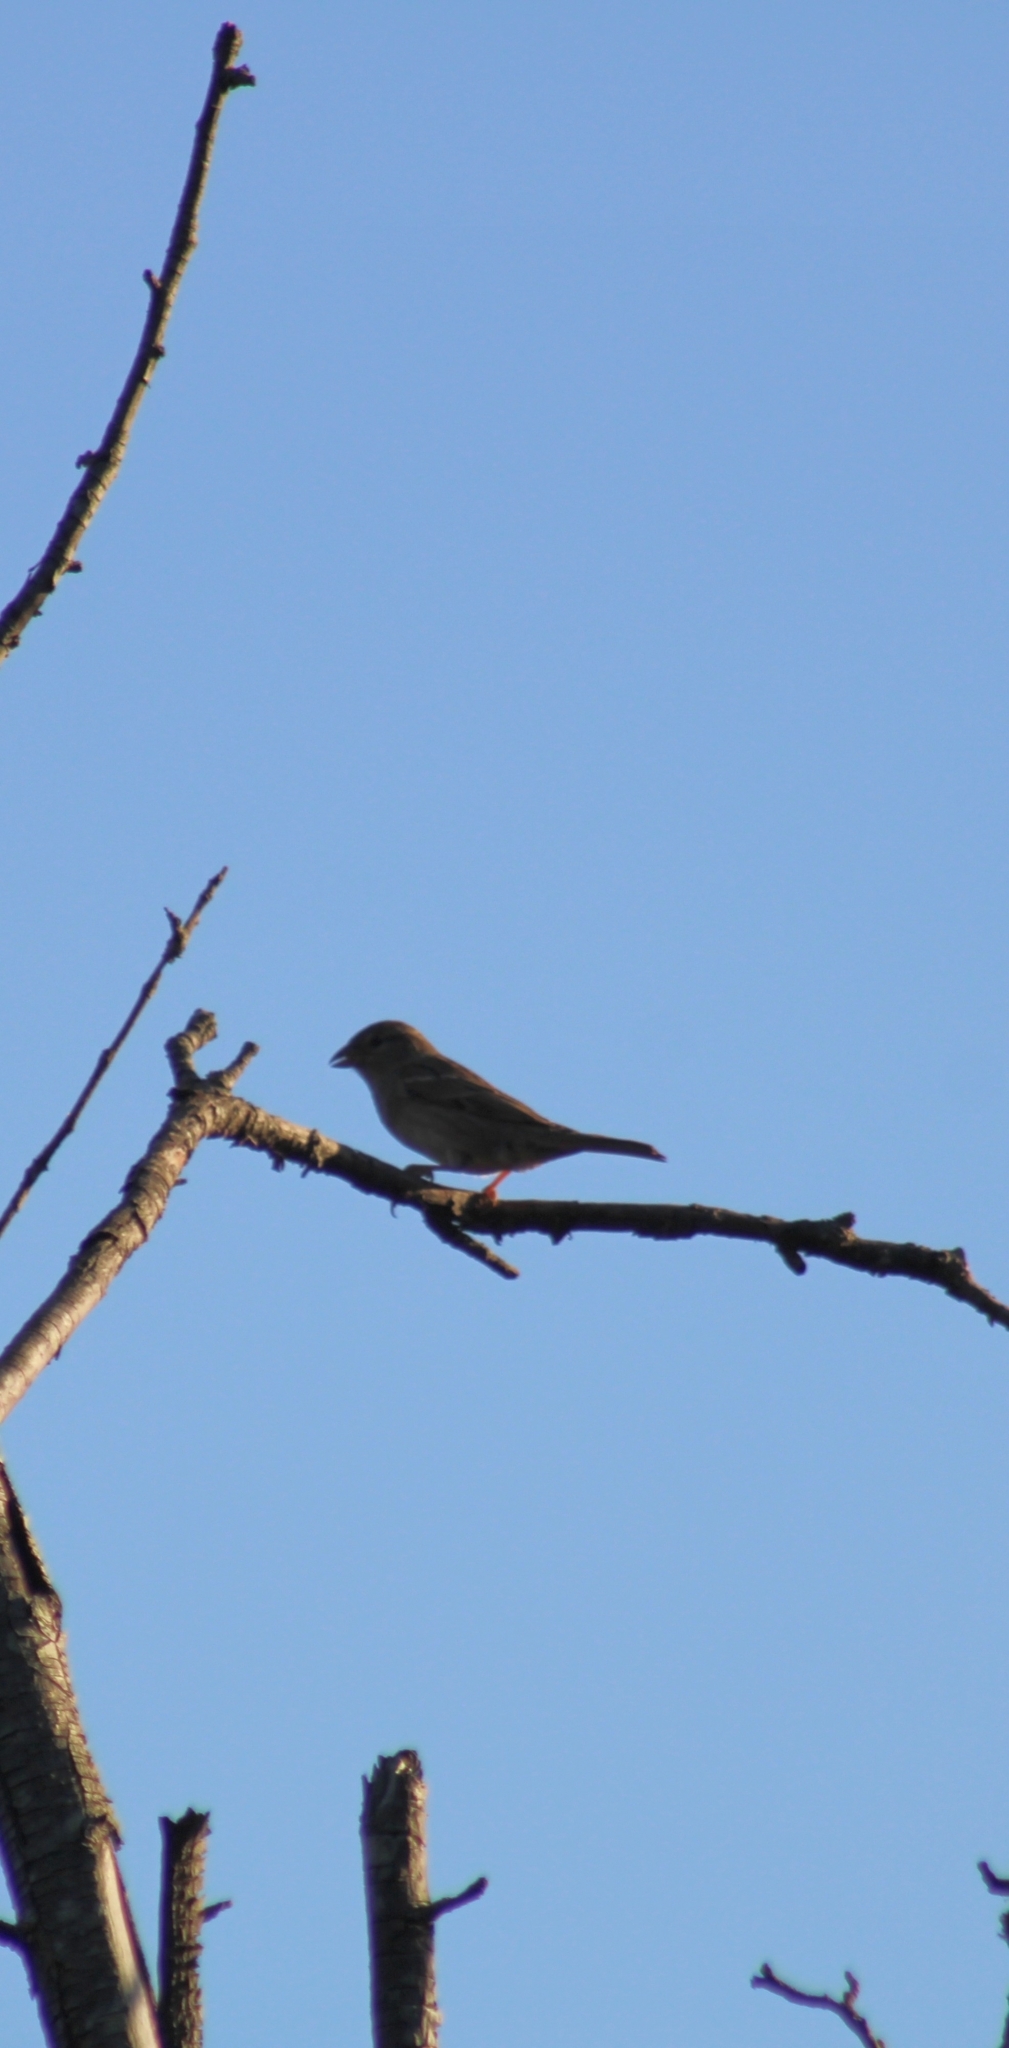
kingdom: Animalia
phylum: Chordata
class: Aves
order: Passeriformes
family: Passeridae
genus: Passer
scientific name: Passer domesticus
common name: House sparrow
